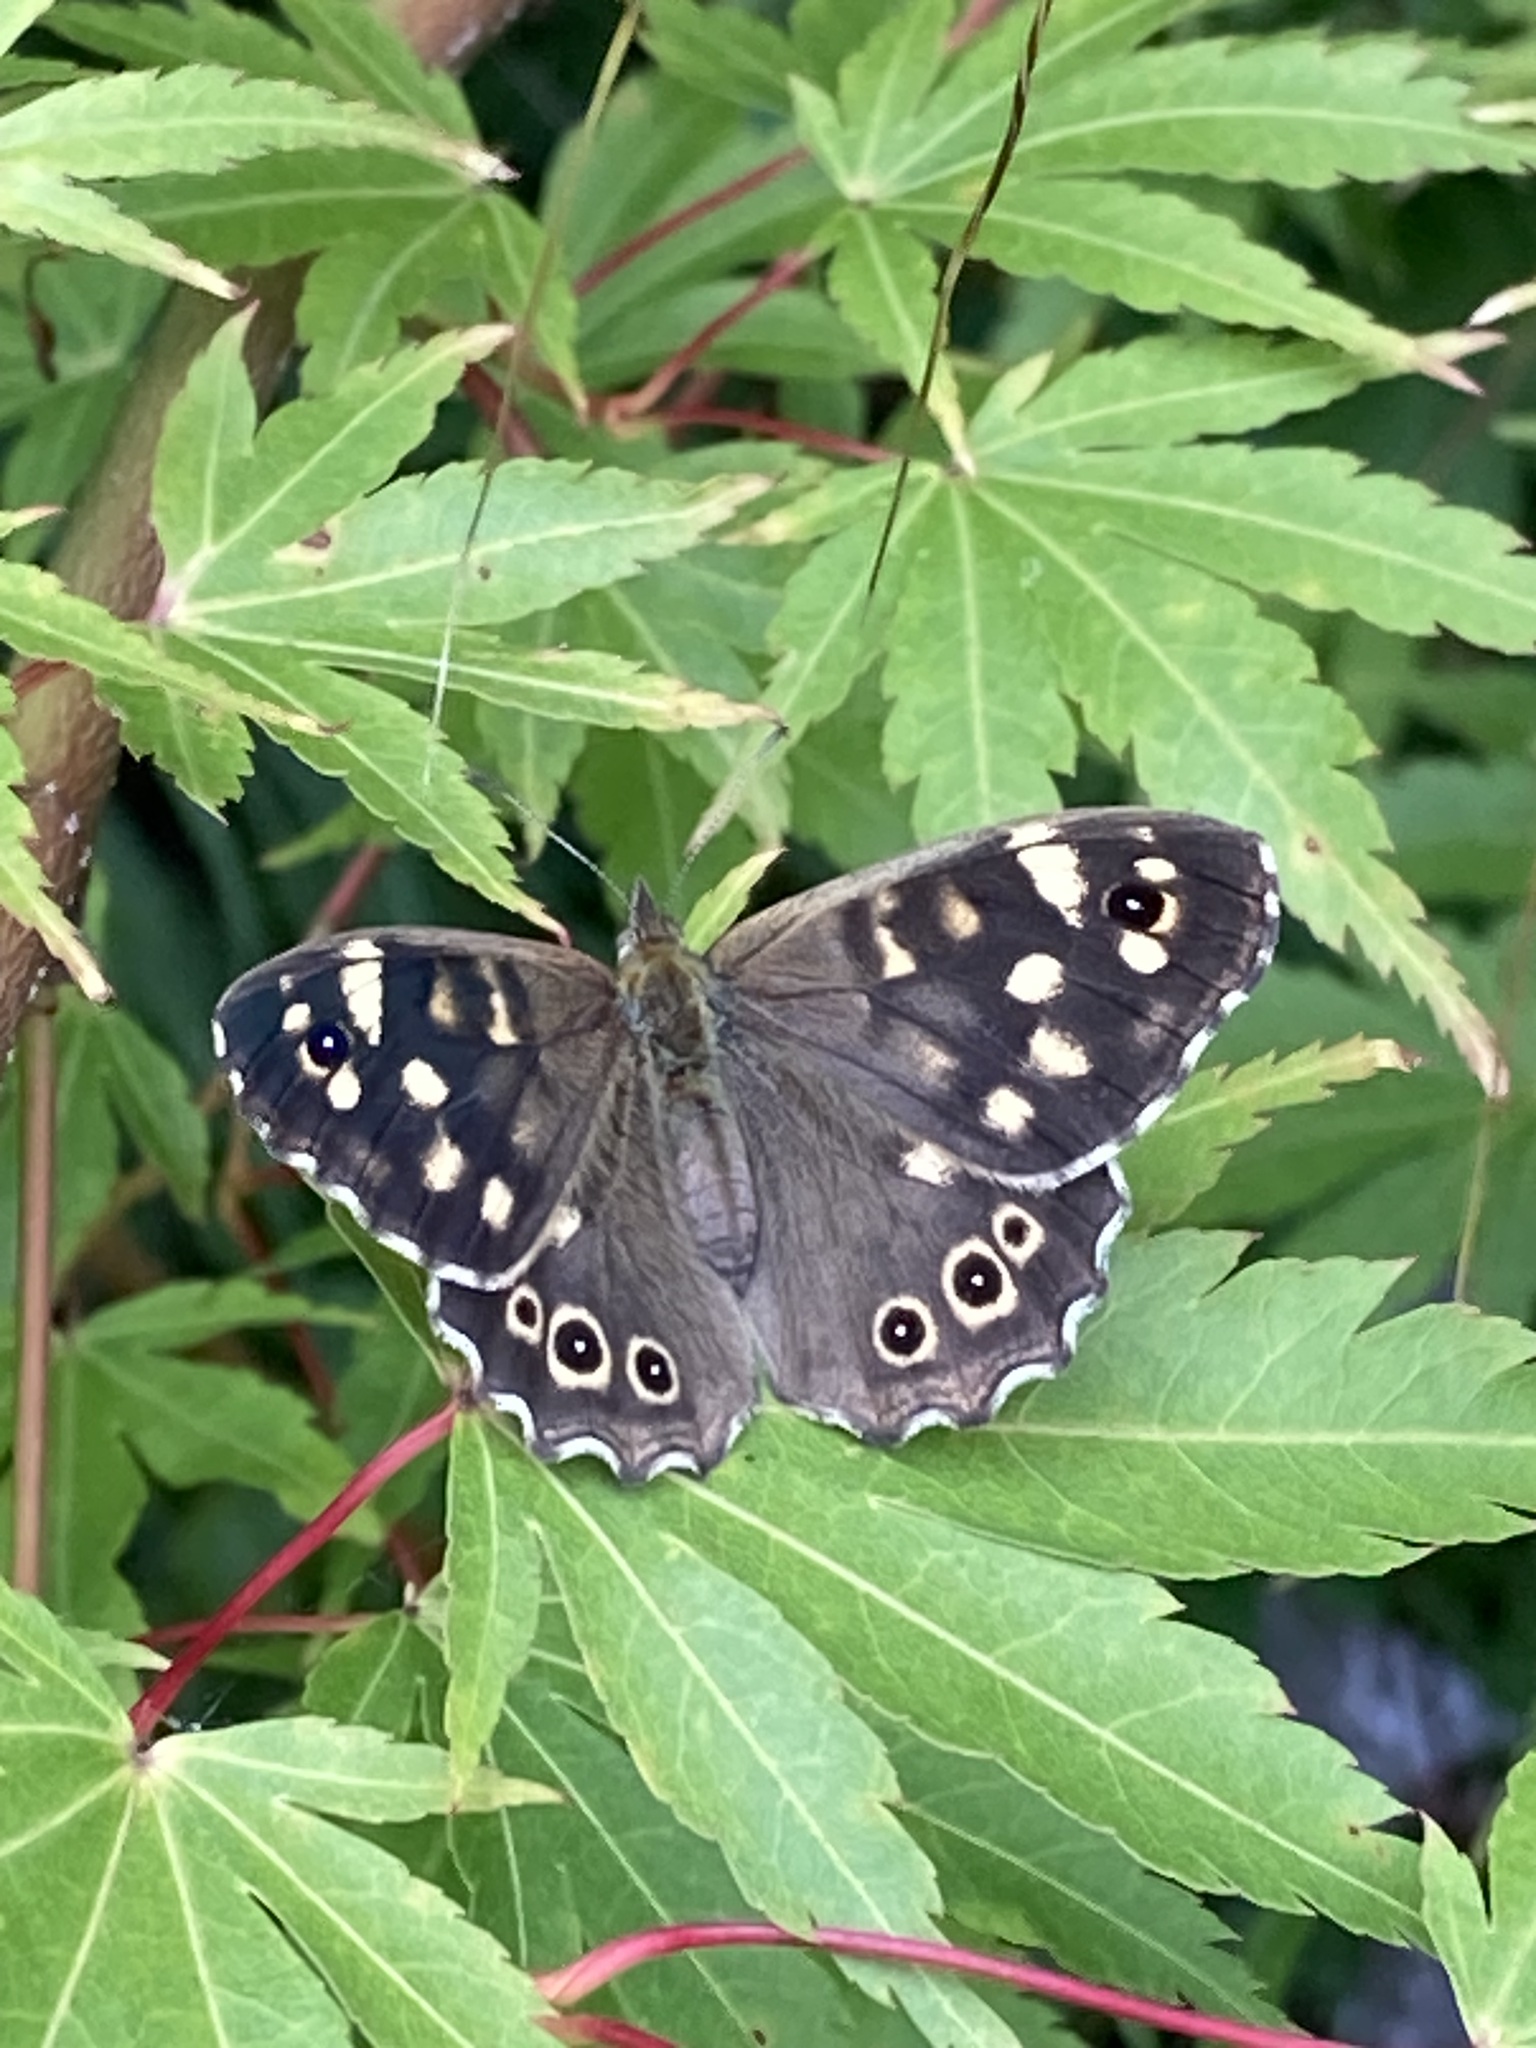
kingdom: Animalia
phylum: Arthropoda
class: Insecta
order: Lepidoptera
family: Nymphalidae
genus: Pararge
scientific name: Pararge aegeria
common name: Speckled wood
